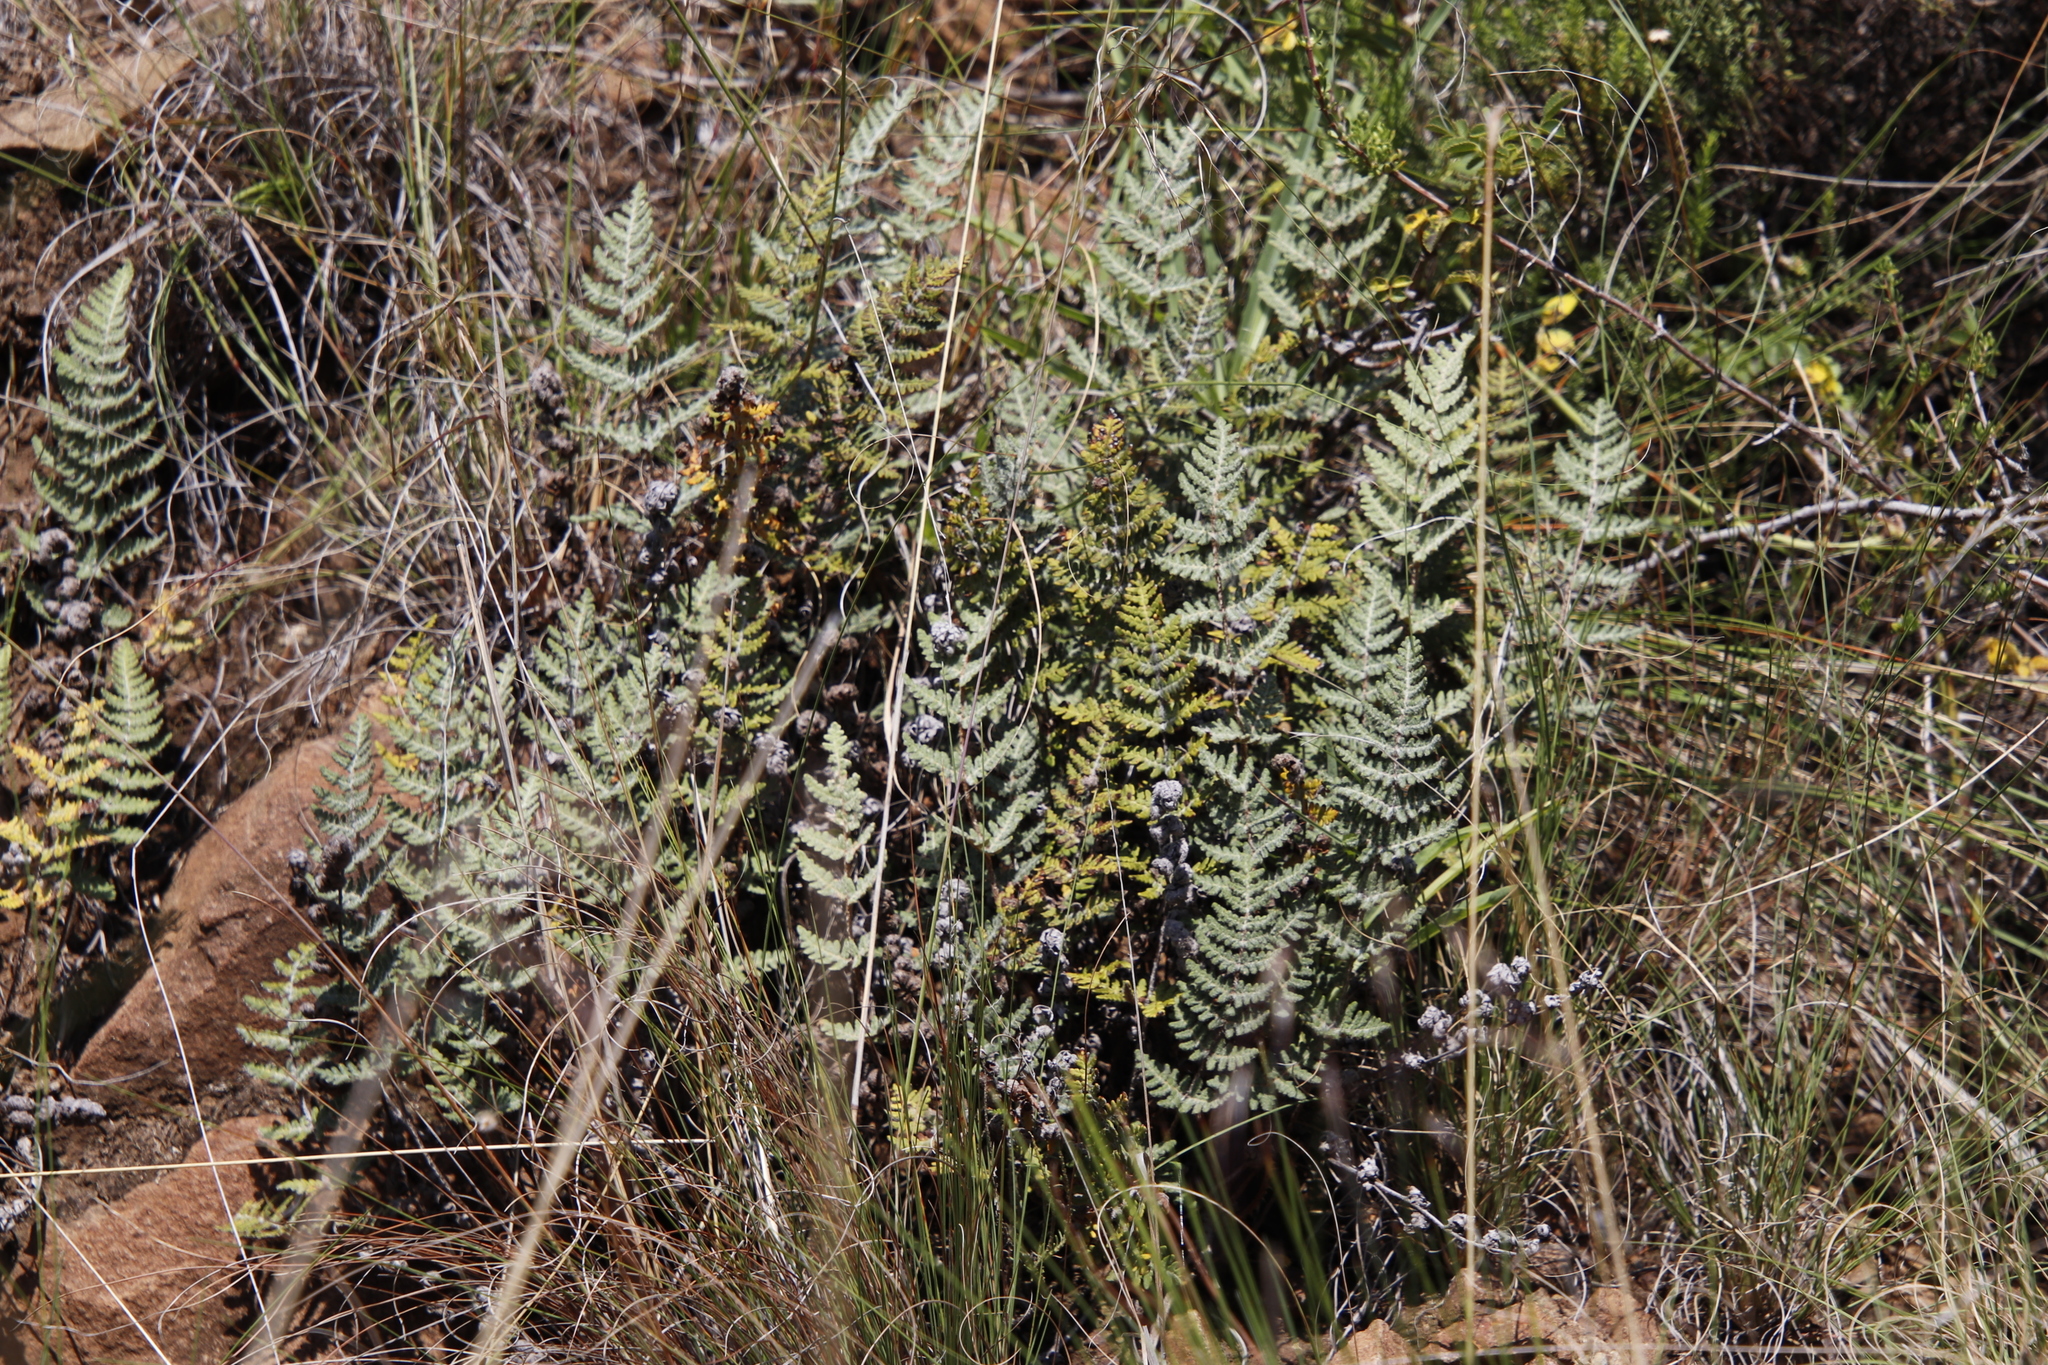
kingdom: Plantae
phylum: Tracheophyta
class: Polypodiopsida
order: Polypodiales
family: Pteridaceae
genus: Cheilanthes
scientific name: Cheilanthes eckloniana
